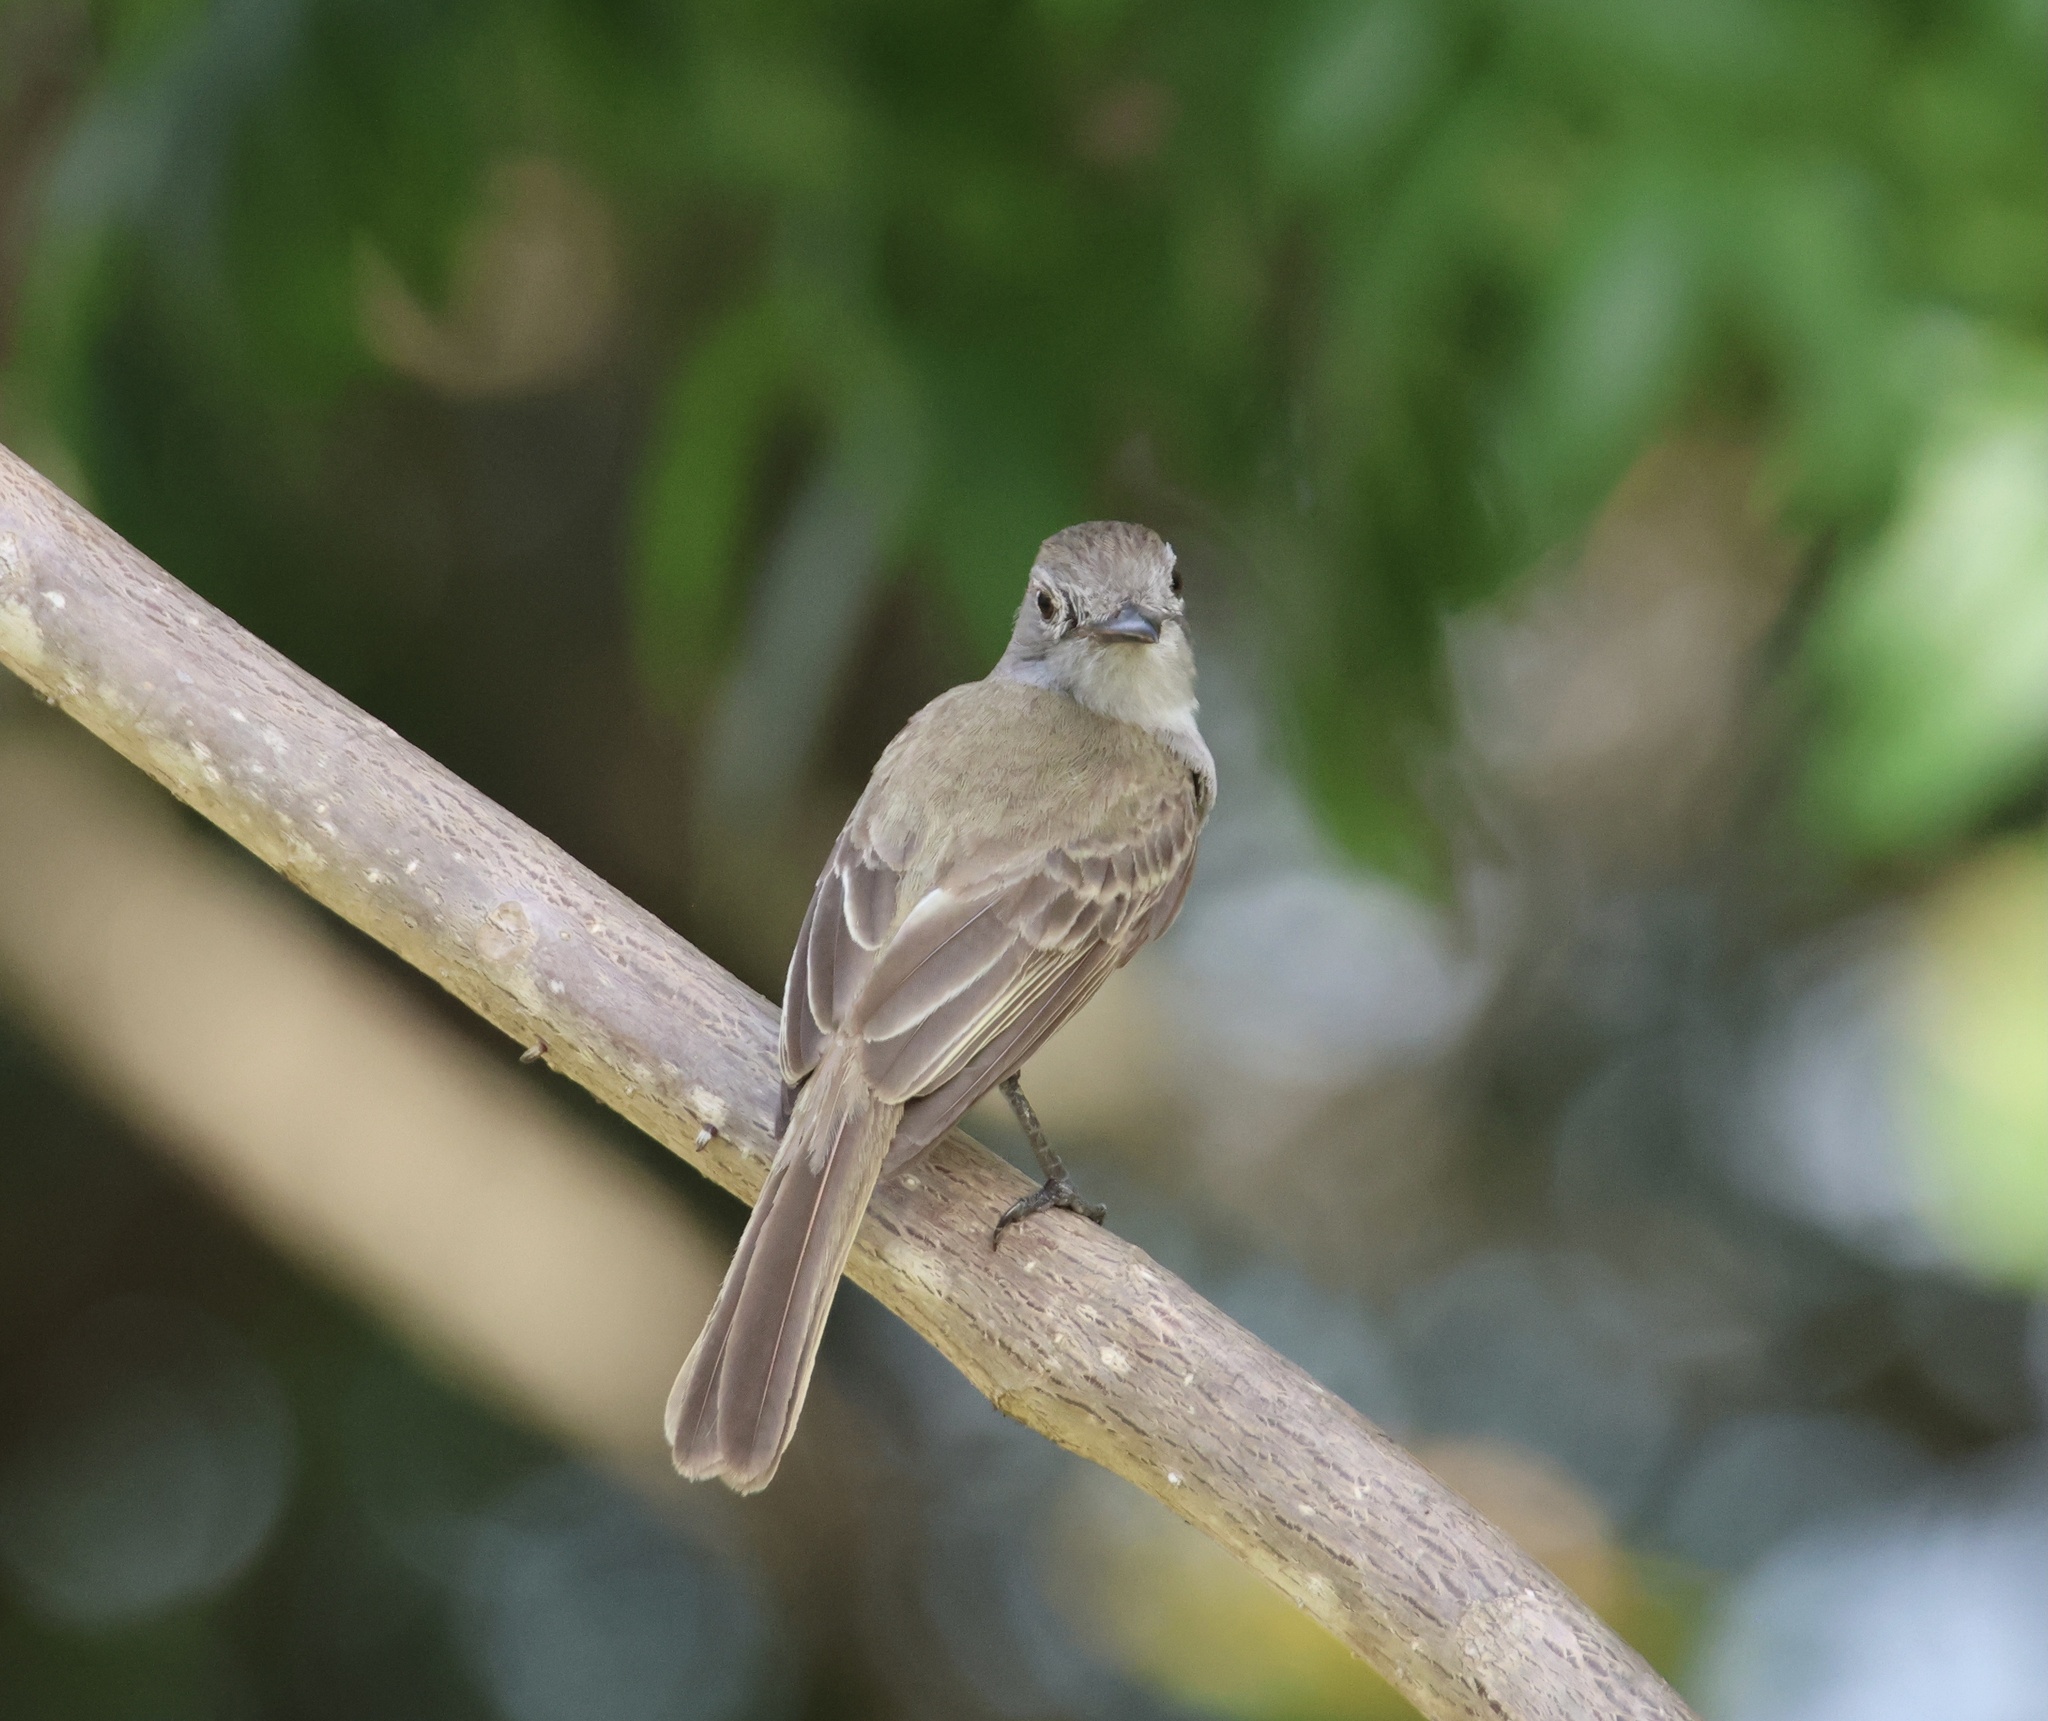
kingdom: Animalia
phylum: Chordata
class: Aves
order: Passeriformes
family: Tyrannidae
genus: Myiarchus
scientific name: Myiarchus panamensis
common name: Panama flycatcher
